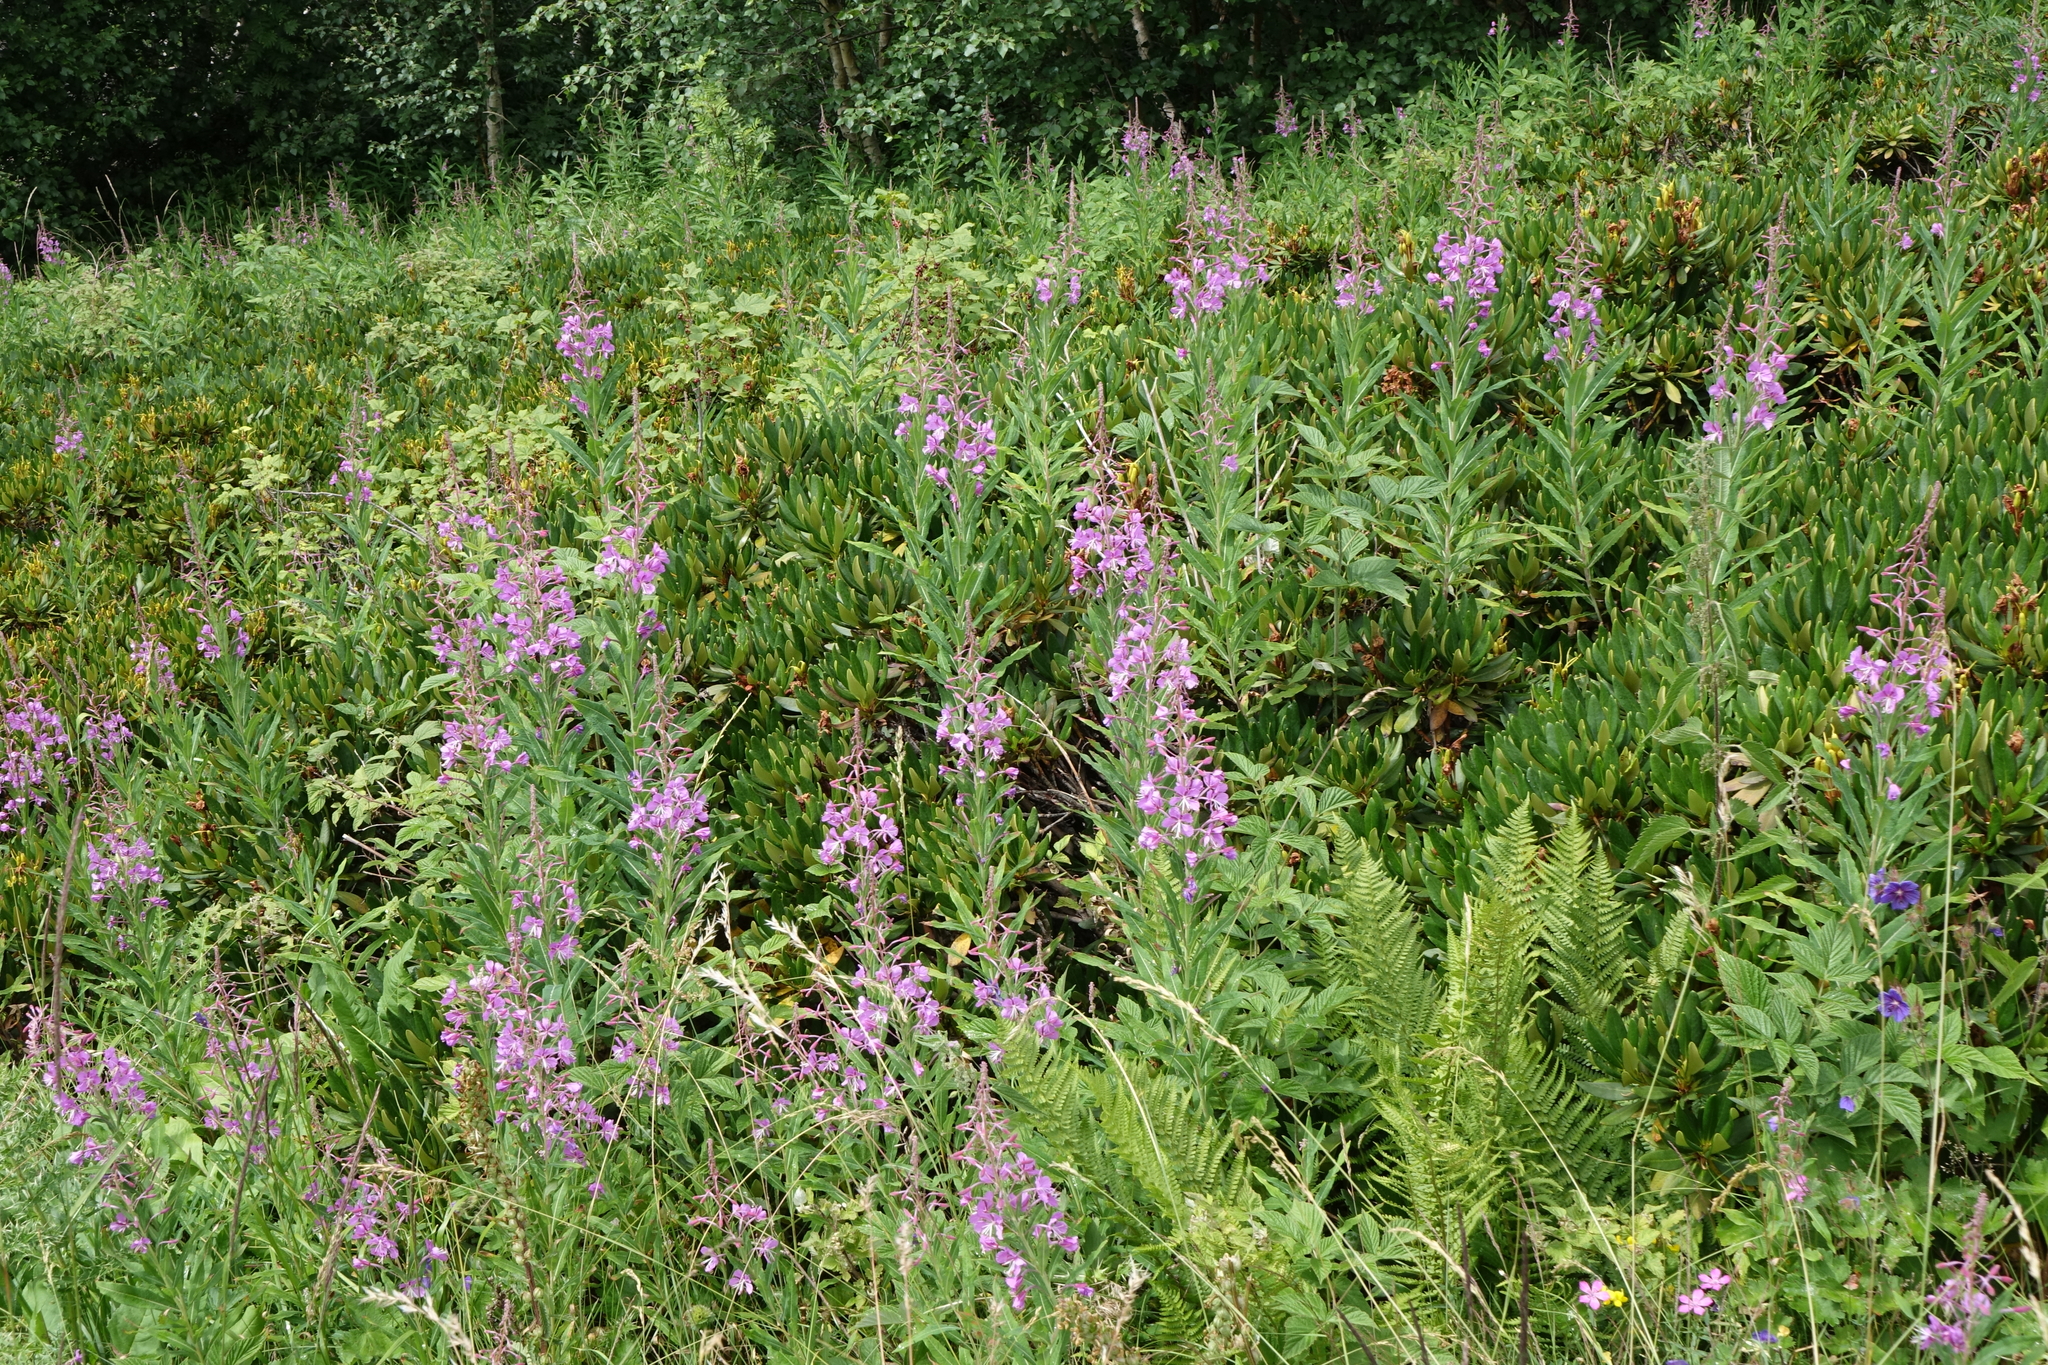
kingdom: Plantae
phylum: Tracheophyta
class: Magnoliopsida
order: Myrtales
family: Onagraceae
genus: Chamaenerion
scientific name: Chamaenerion angustifolium
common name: Fireweed
